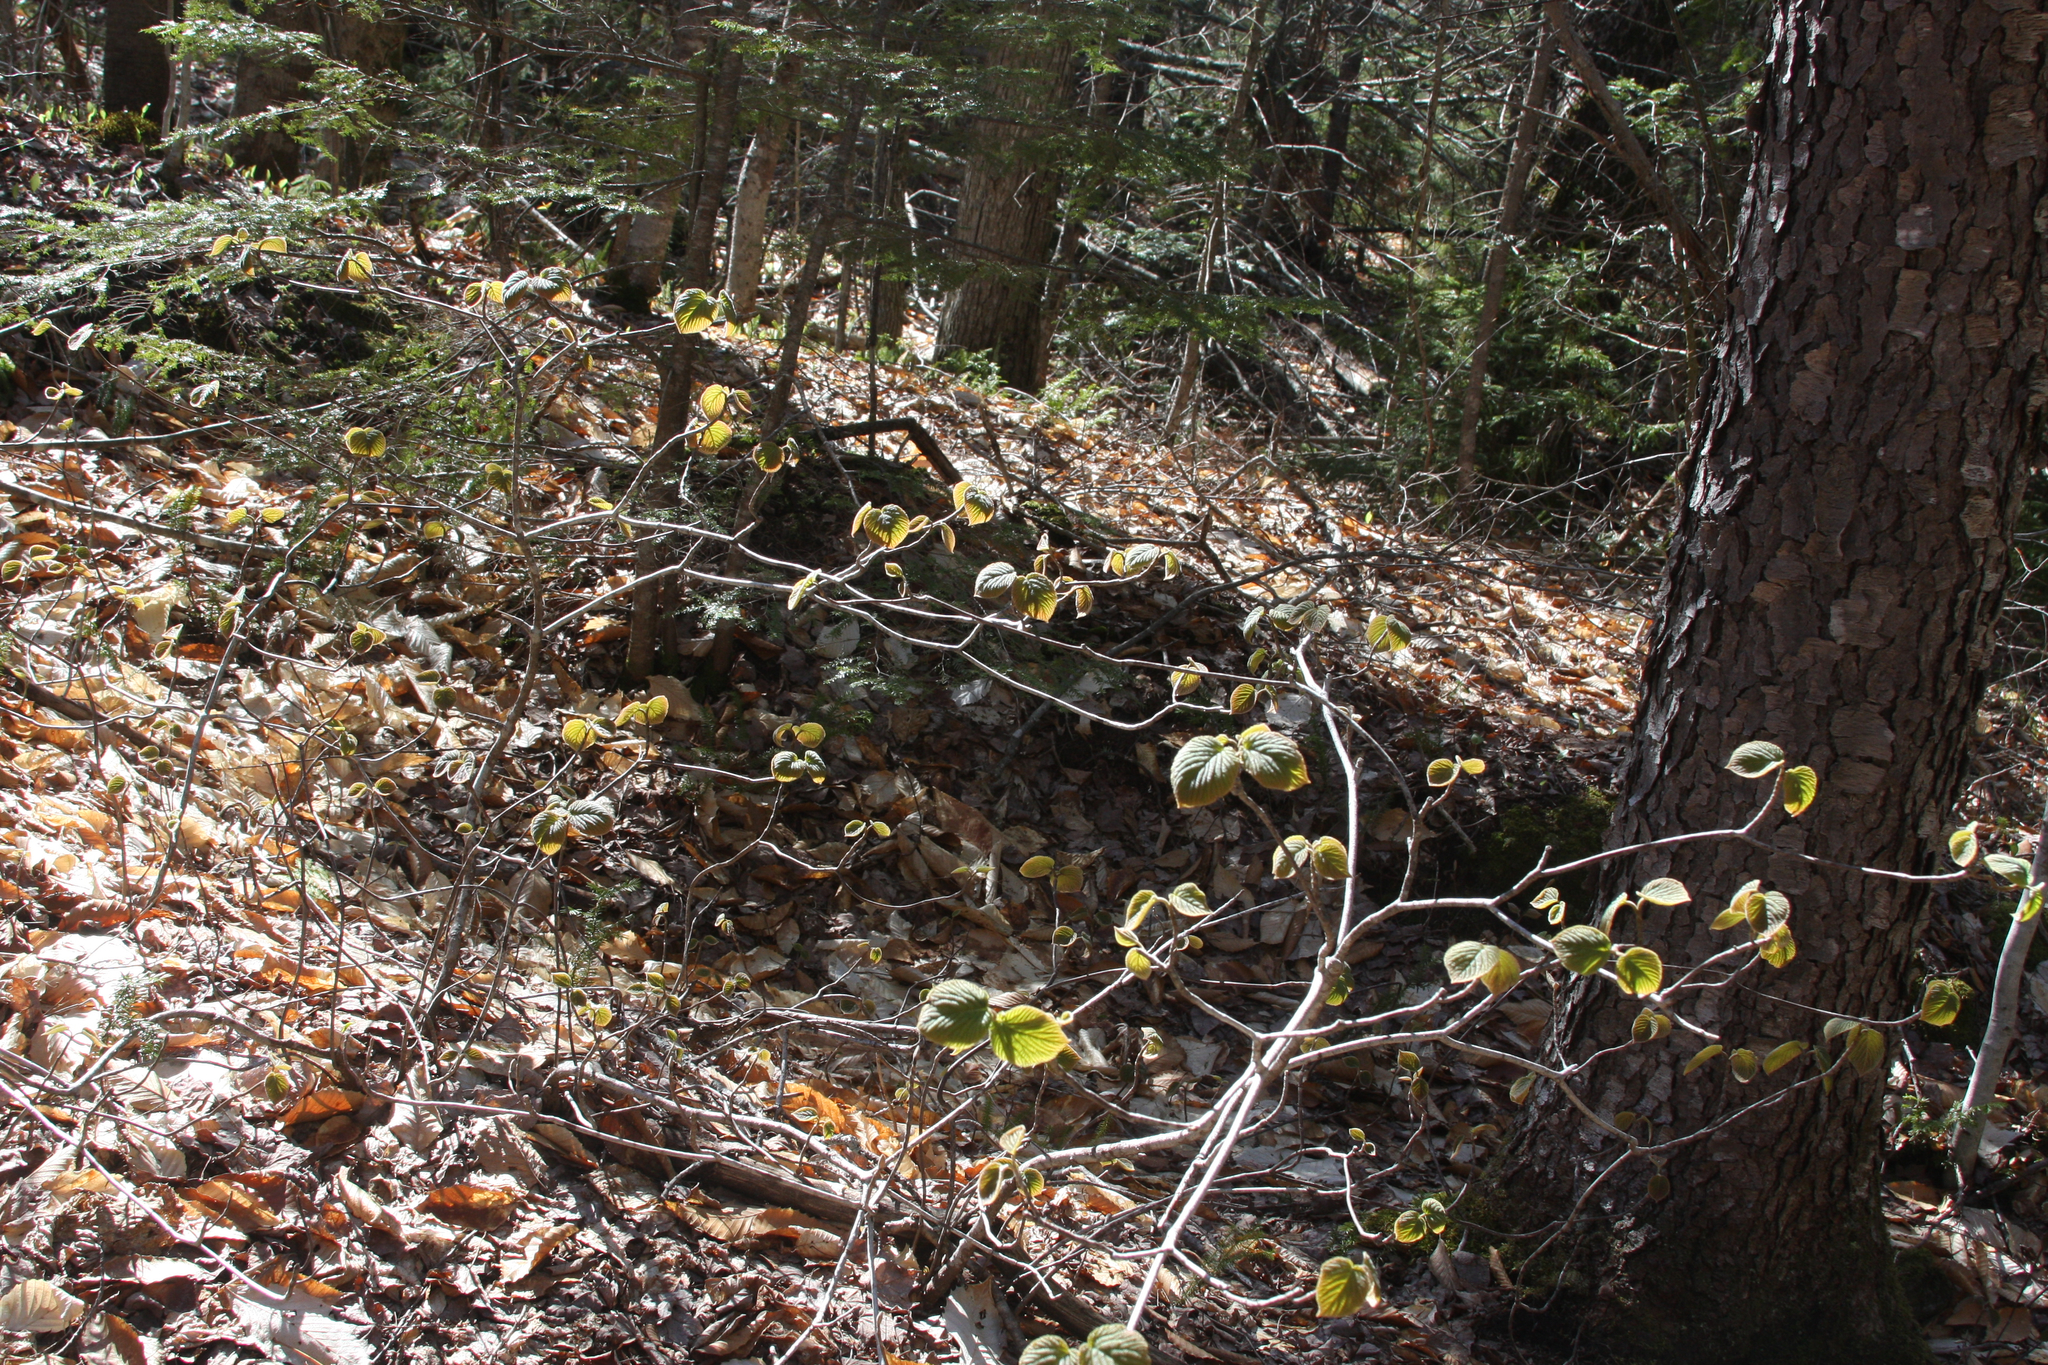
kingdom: Plantae
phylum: Tracheophyta
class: Magnoliopsida
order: Dipsacales
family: Viburnaceae
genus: Viburnum
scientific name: Viburnum lantanoides
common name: Hobblebush
